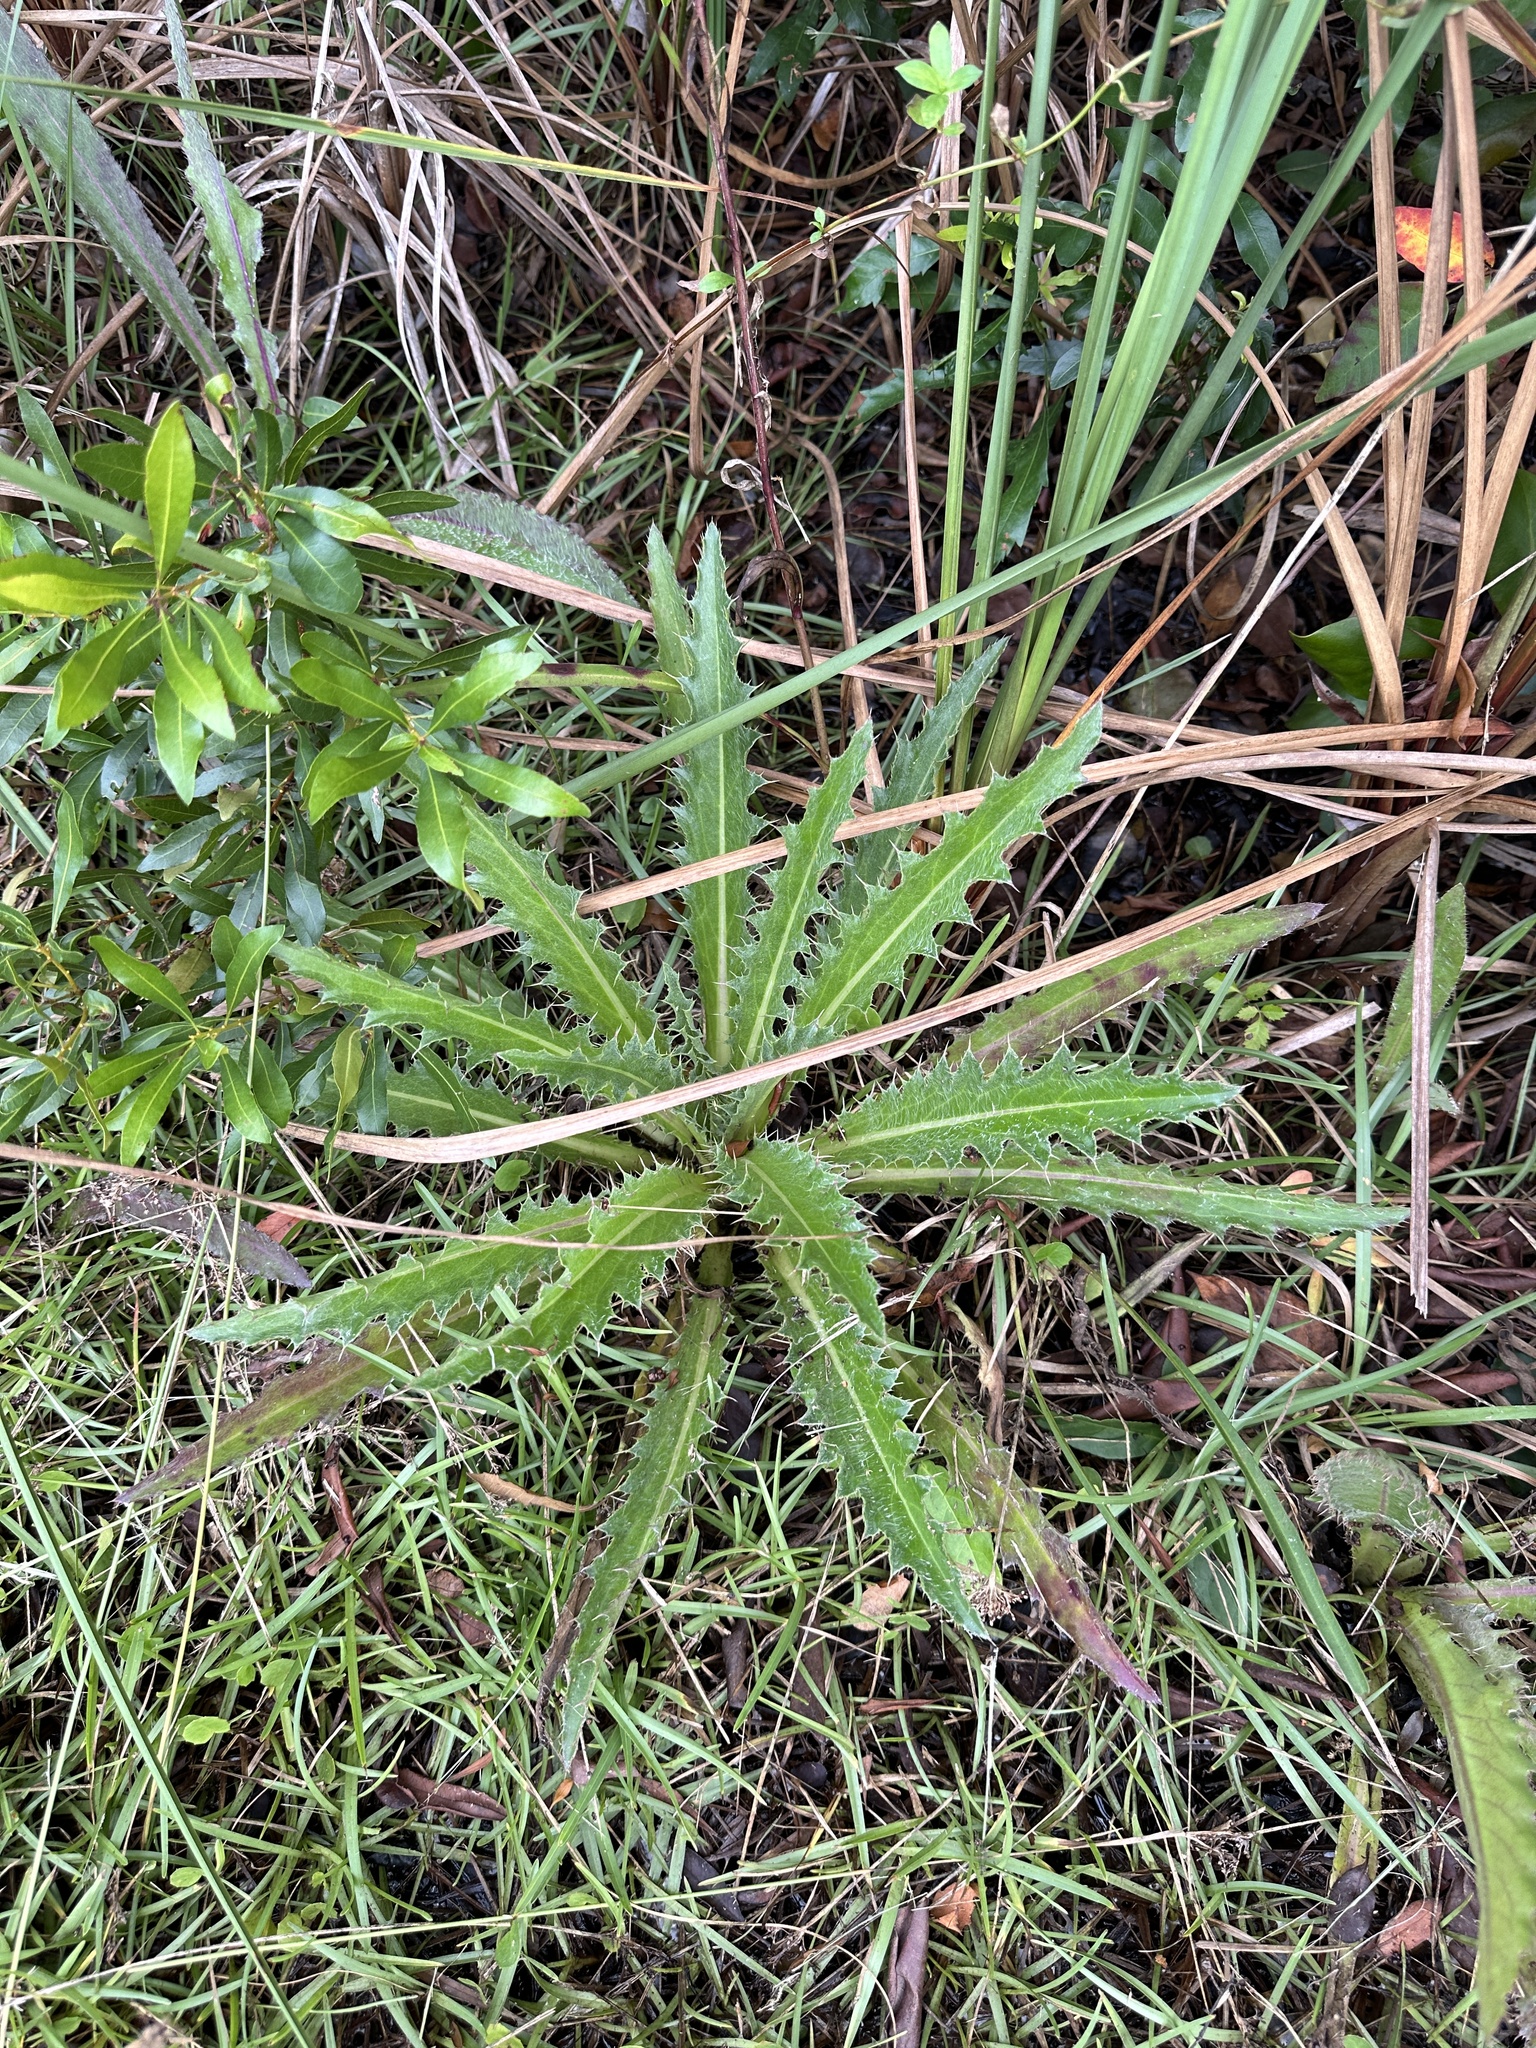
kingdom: Plantae
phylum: Tracheophyta
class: Magnoliopsida
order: Asterales
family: Asteraceae
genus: Cirsium
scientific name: Cirsium horridulum
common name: Bristly thistle
